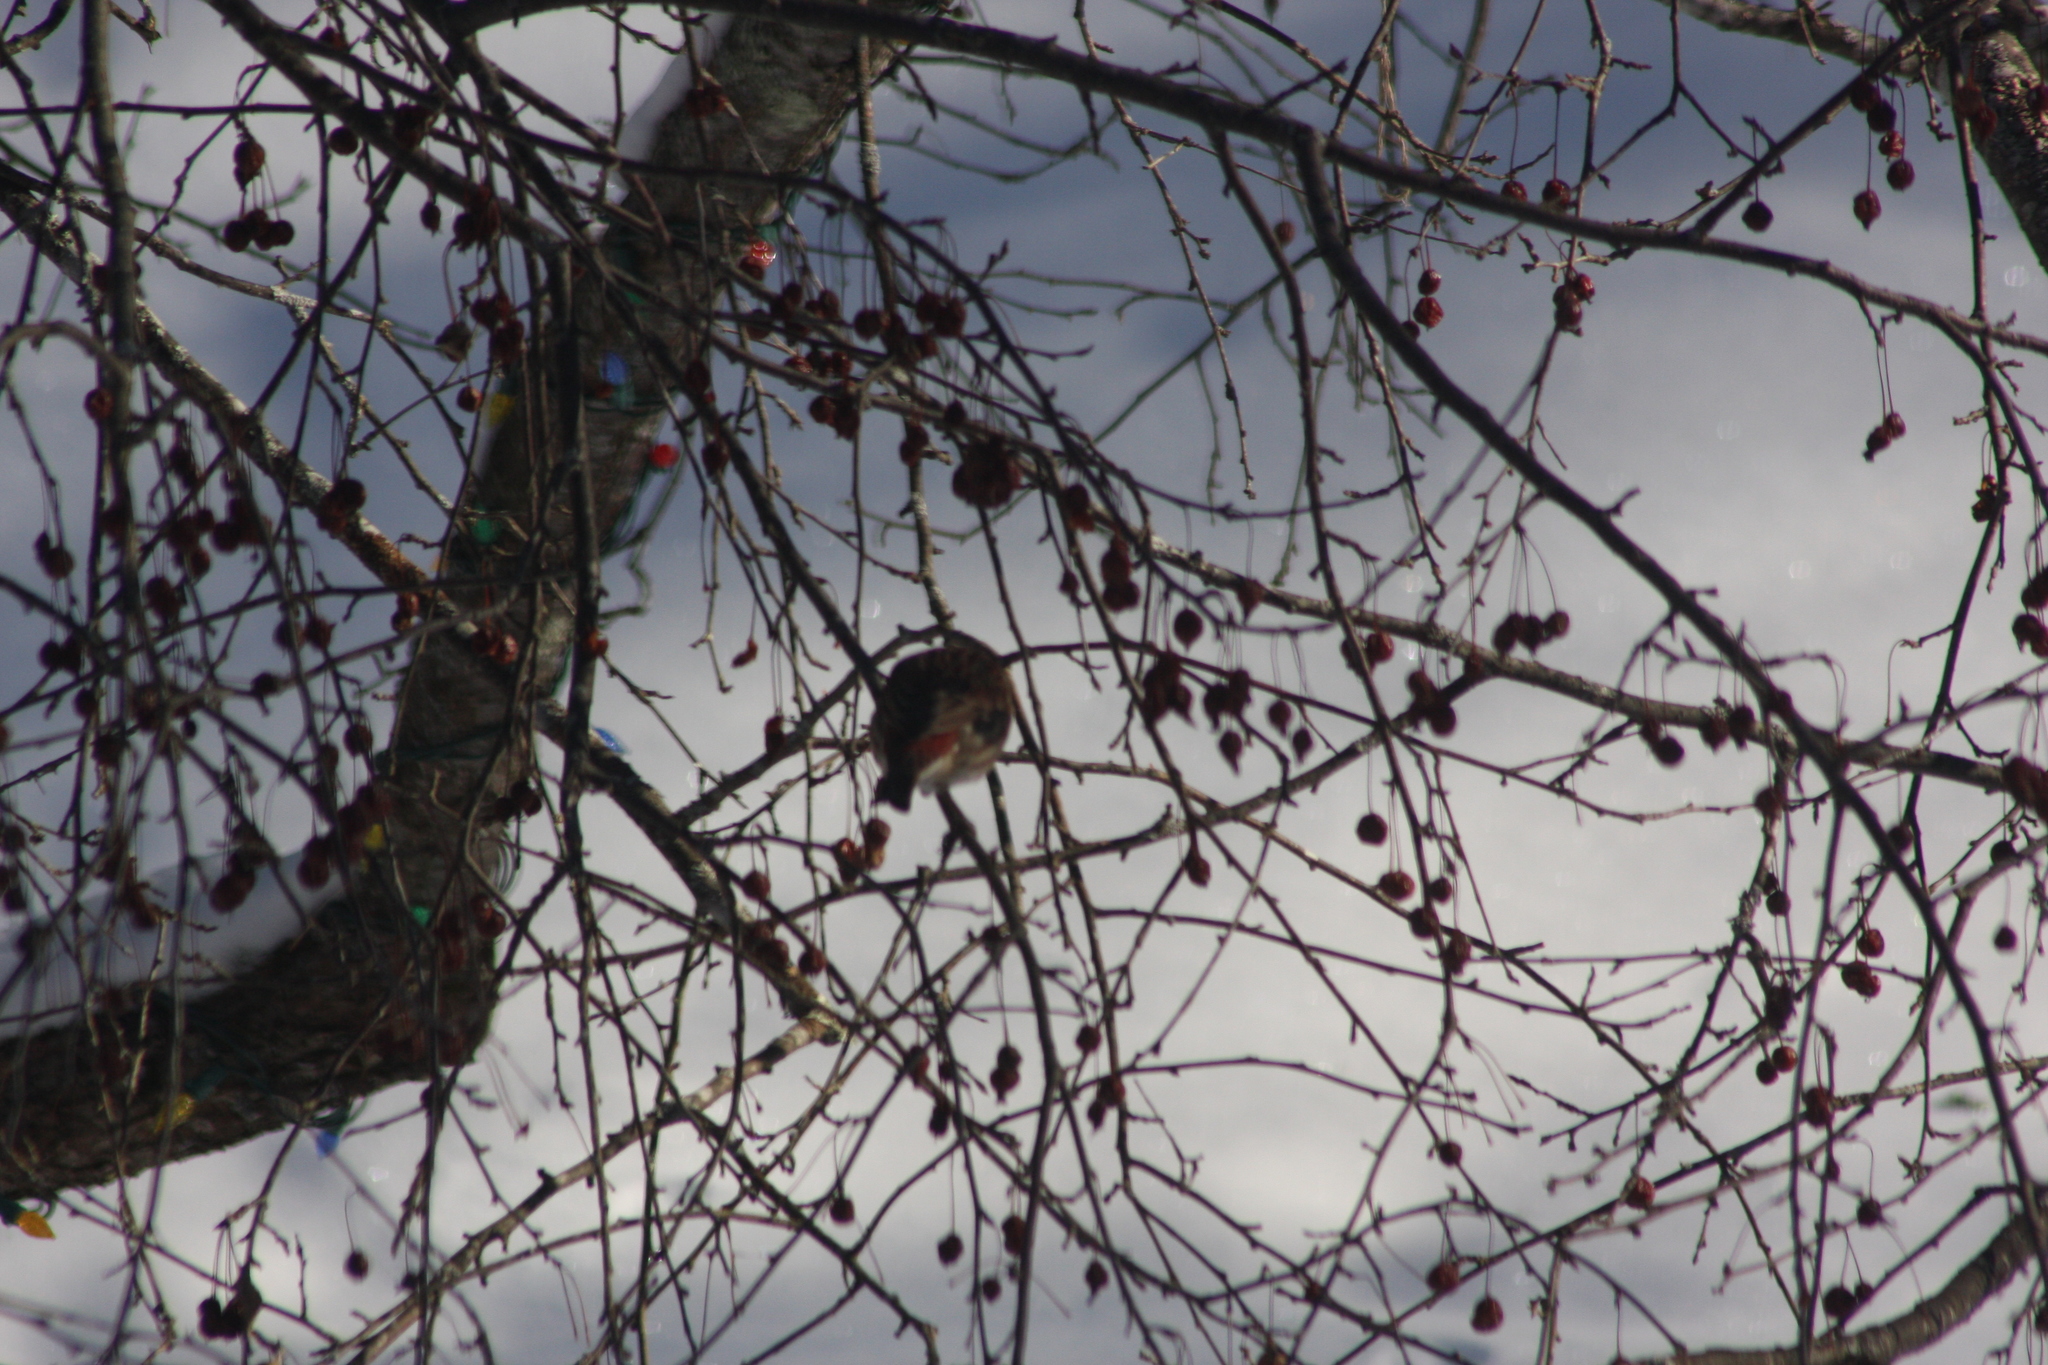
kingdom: Animalia
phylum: Chordata
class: Aves
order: Passeriformes
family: Fringillidae
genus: Haemorhous
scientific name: Haemorhous purpureus
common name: Purple finch
